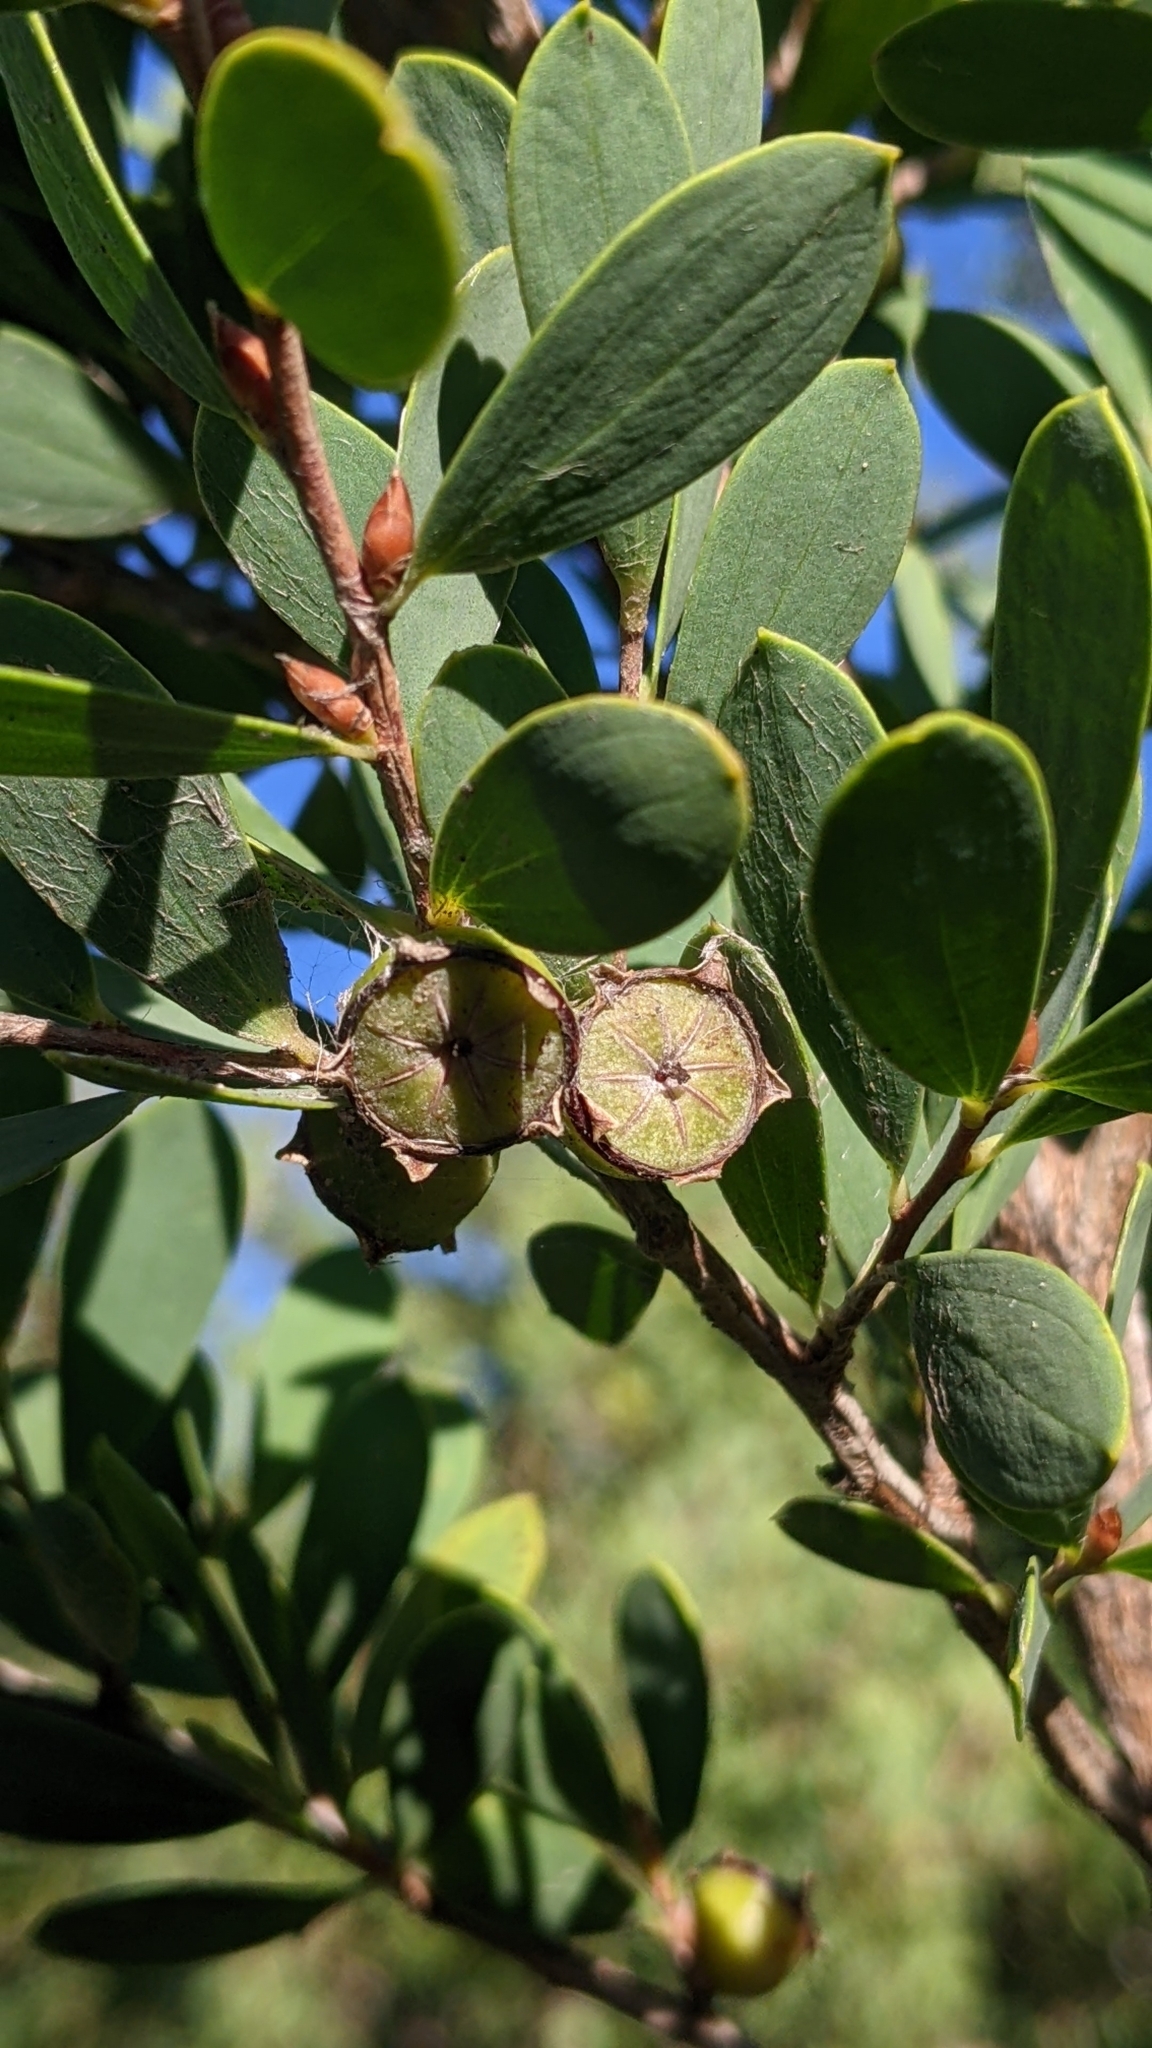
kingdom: Plantae
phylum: Tracheophyta
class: Magnoliopsida
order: Myrtales
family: Myrtaceae
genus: Leptospermum
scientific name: Leptospermum laevigatum
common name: Australian teatree
